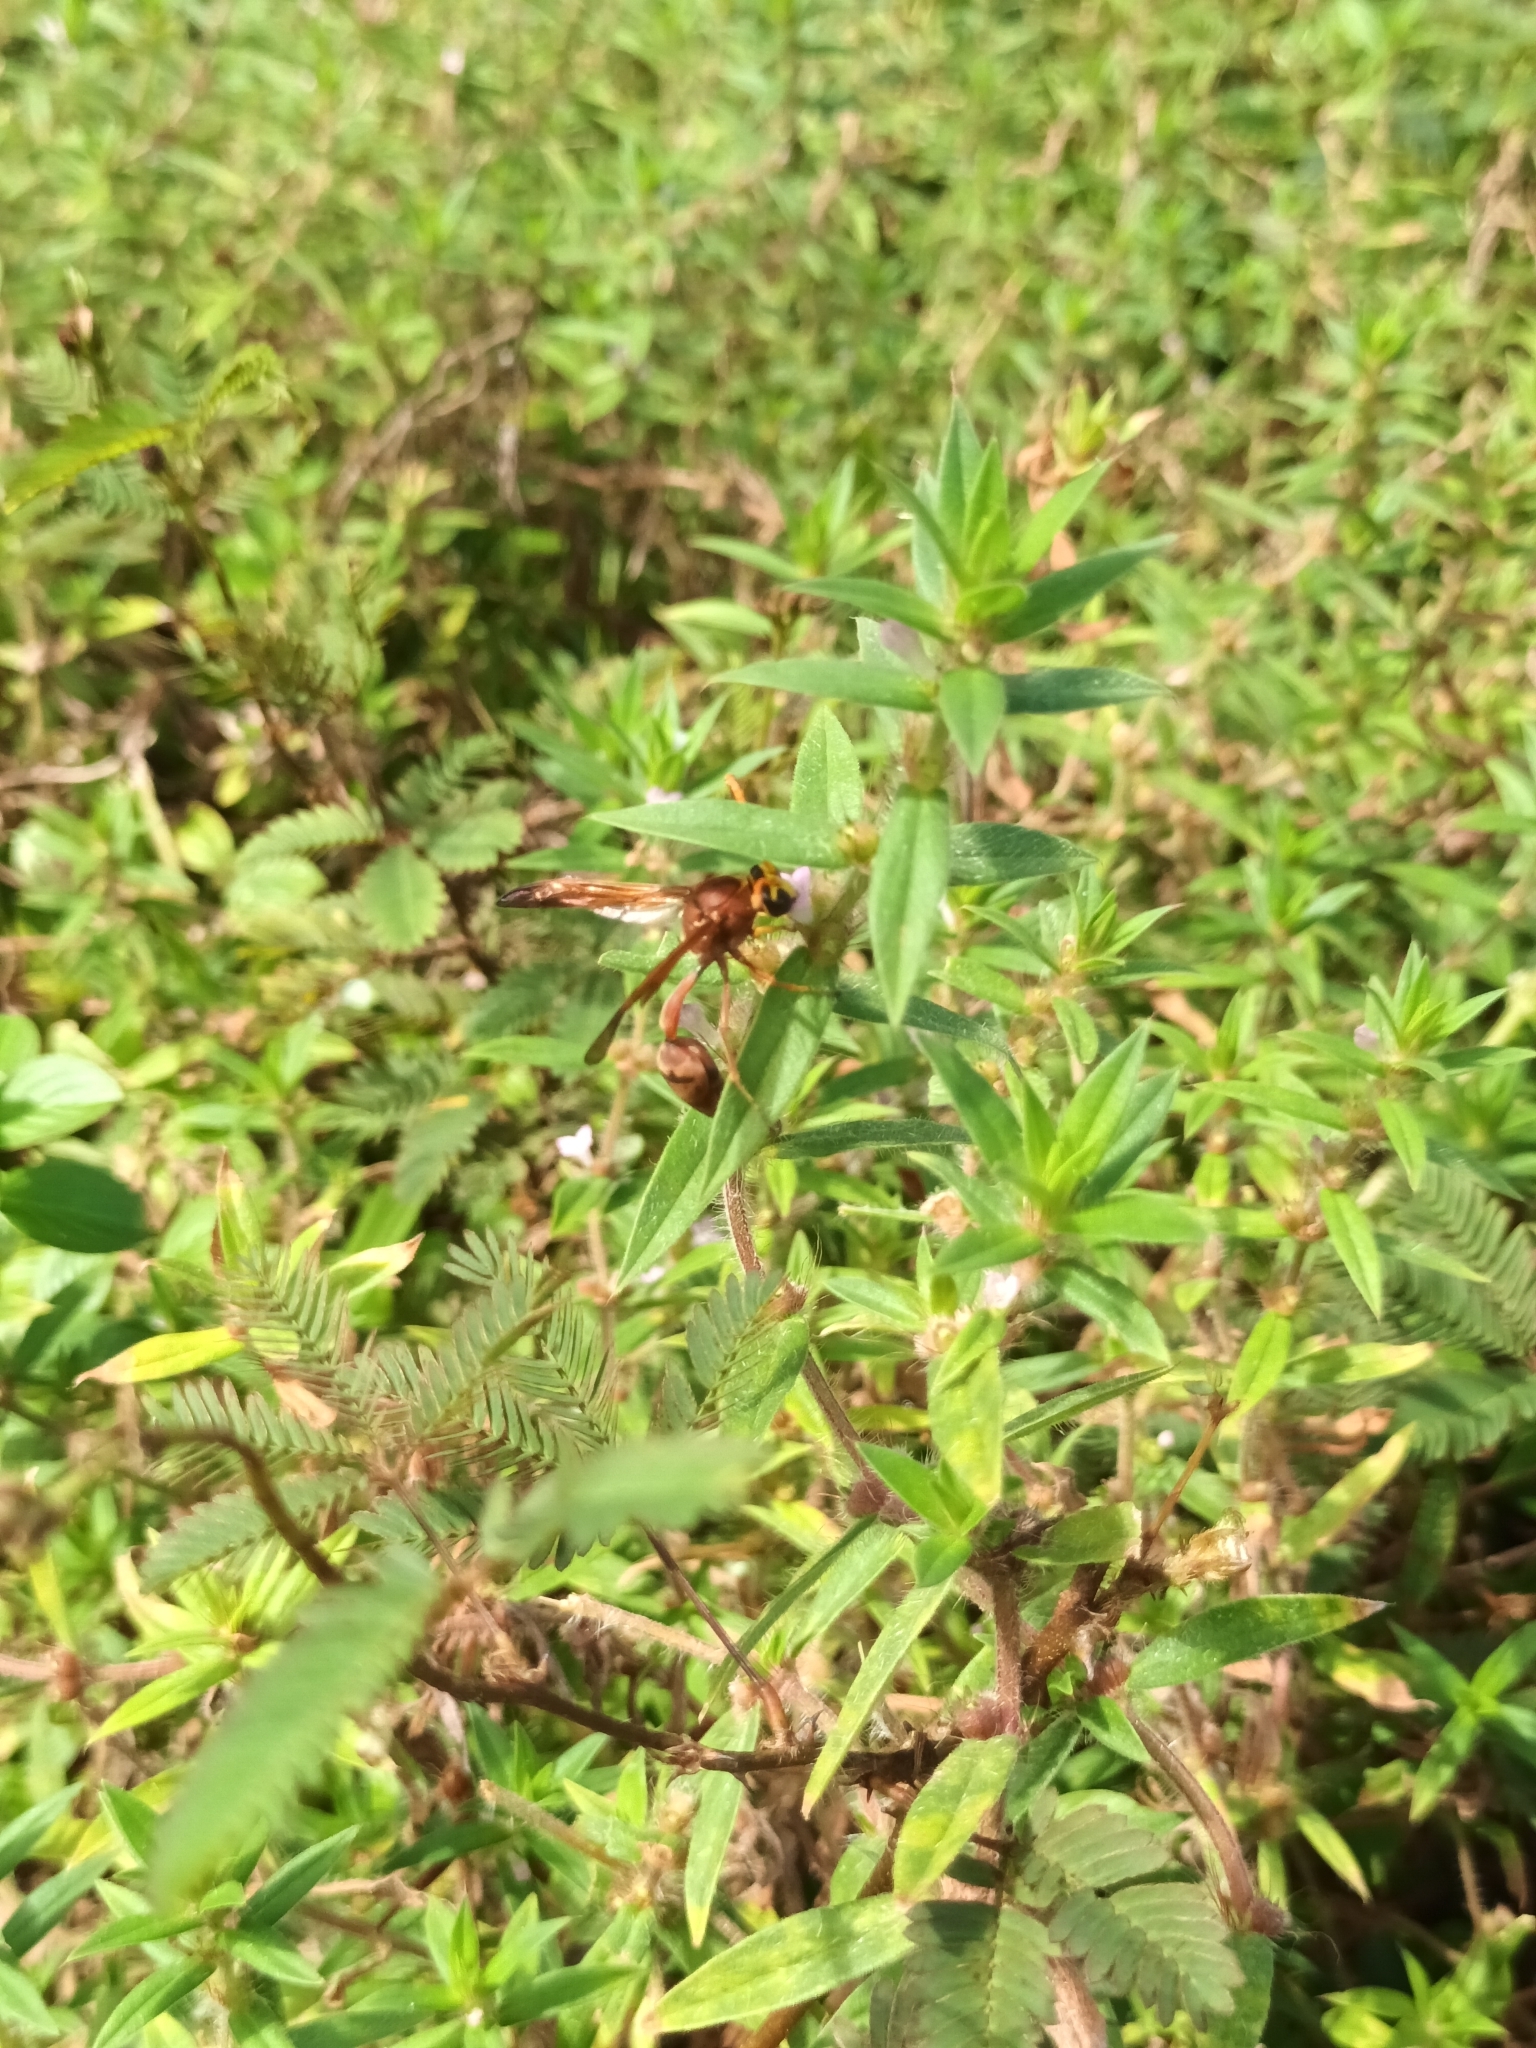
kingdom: Animalia
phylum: Arthropoda
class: Insecta
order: Hymenoptera
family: Eumenidae
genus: Delta
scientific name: Delta conoideum
